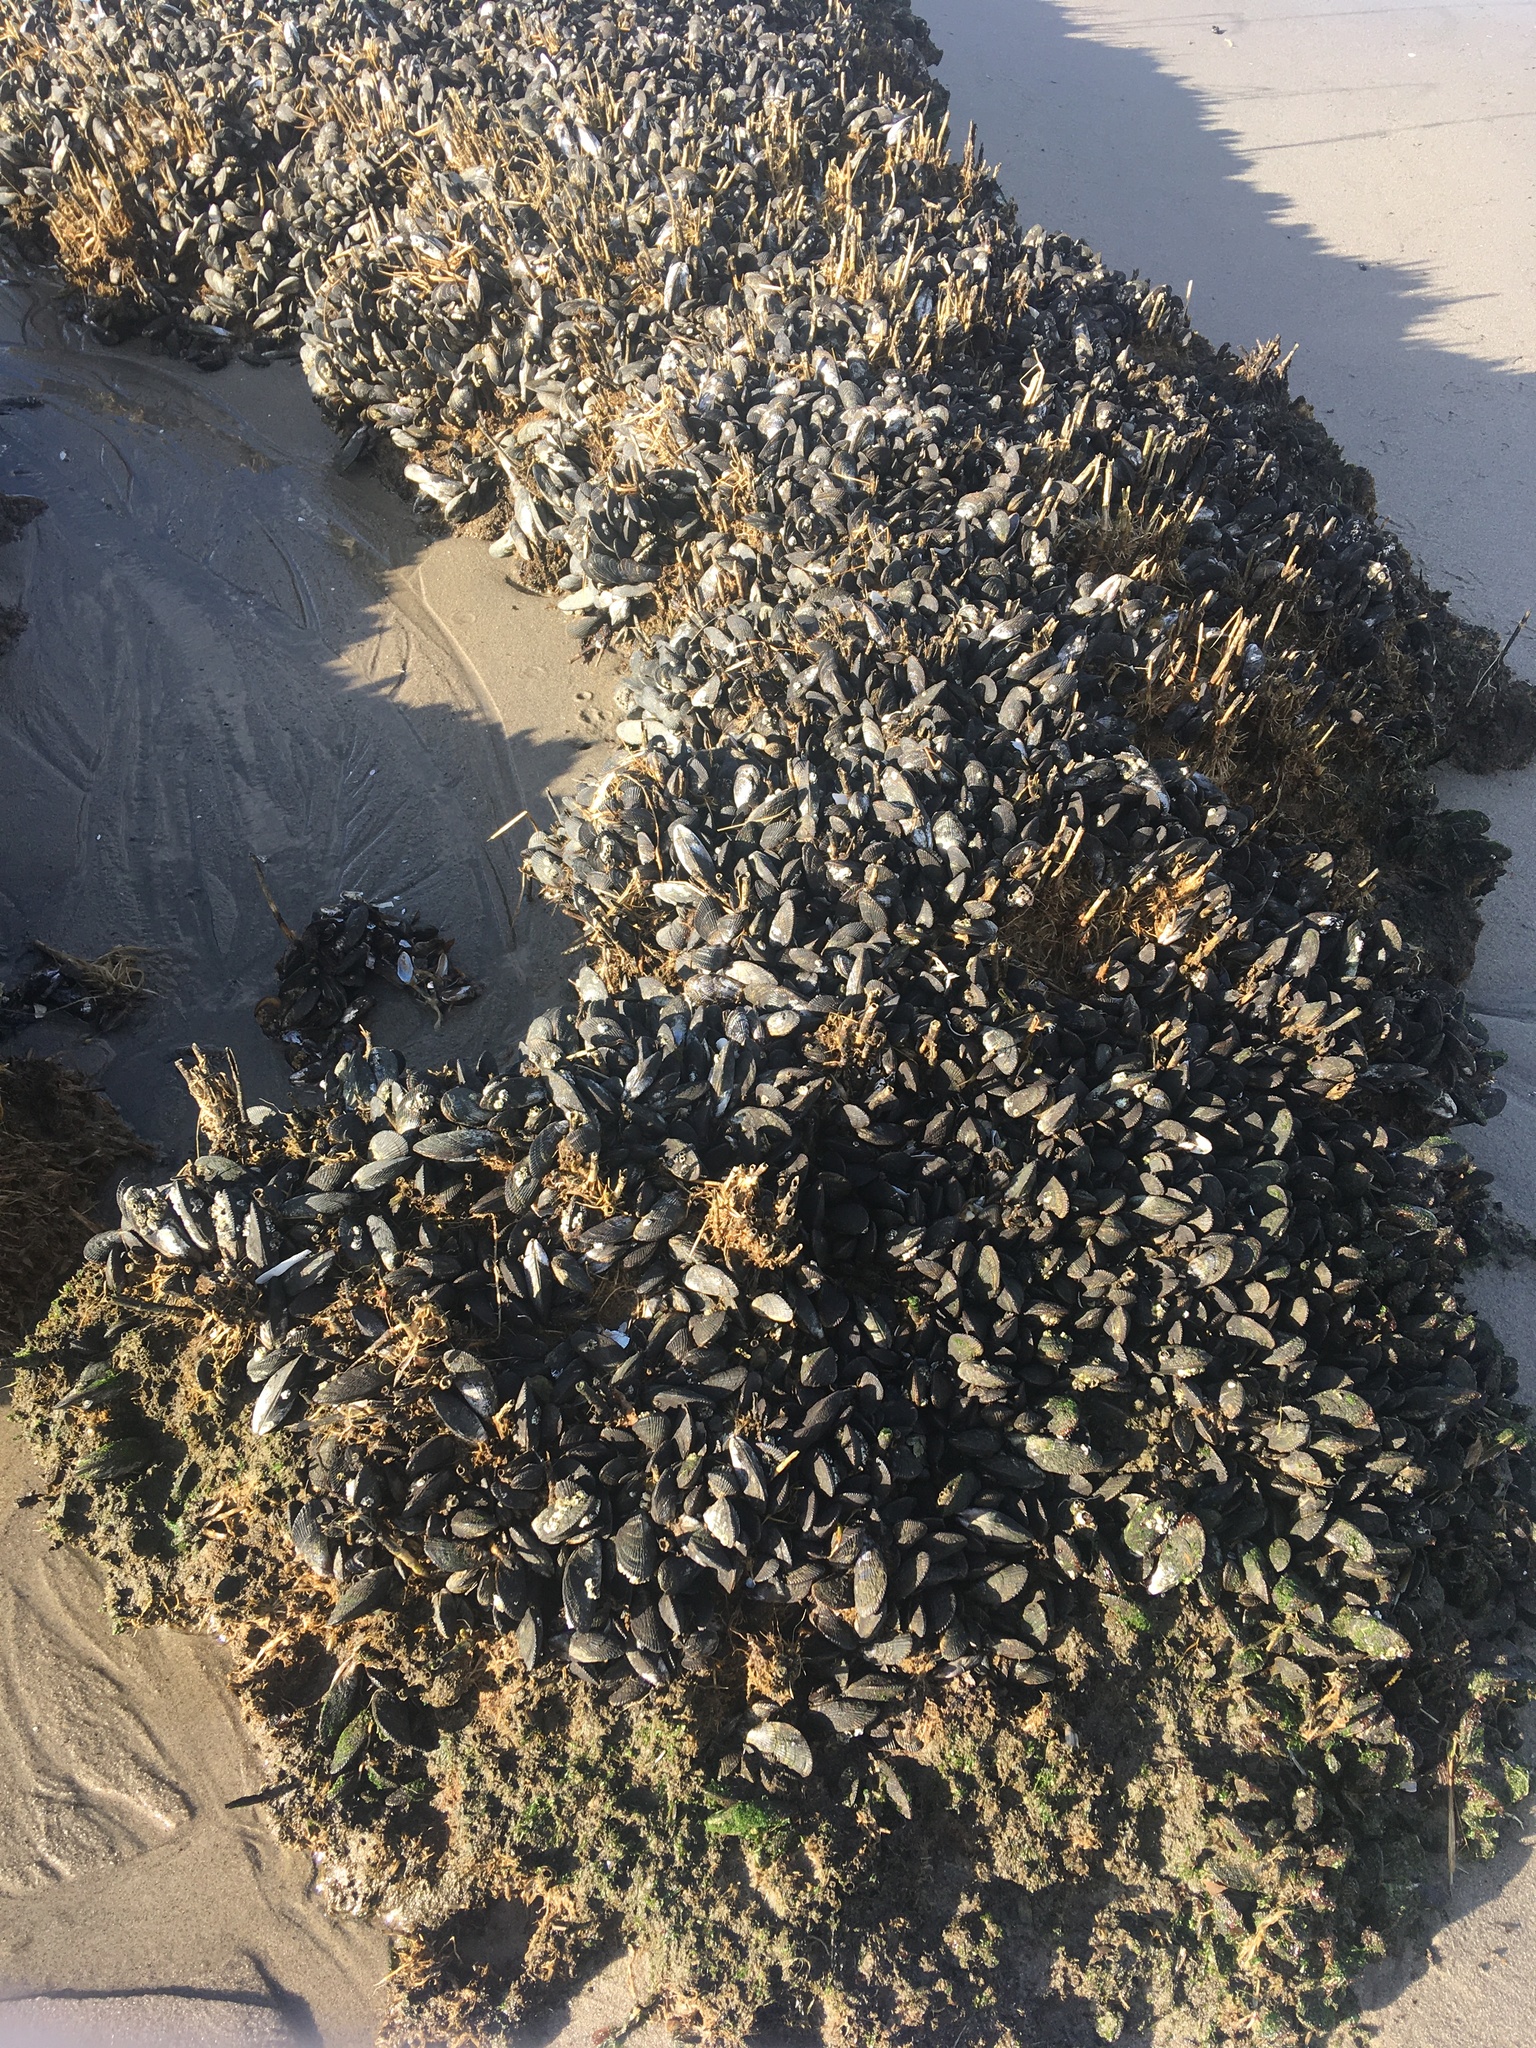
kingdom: Animalia
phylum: Mollusca
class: Bivalvia
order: Mytilida
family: Mytilidae
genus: Geukensia
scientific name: Geukensia demissa
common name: Ribbed mussel
